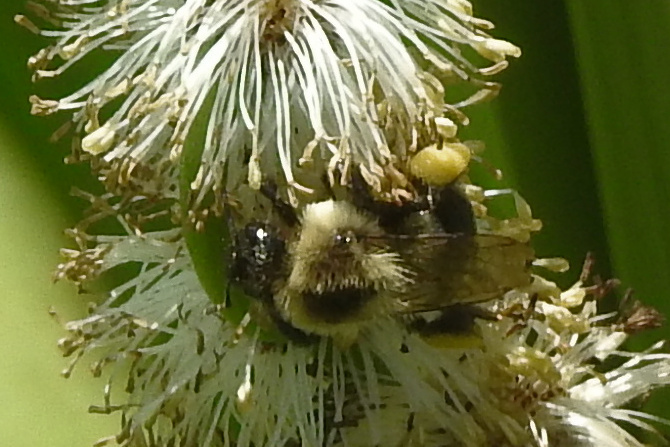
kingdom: Animalia
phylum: Arthropoda
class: Insecta
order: Hymenoptera
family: Apidae
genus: Bombus
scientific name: Bombus impatiens
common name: Common eastern bumble bee
